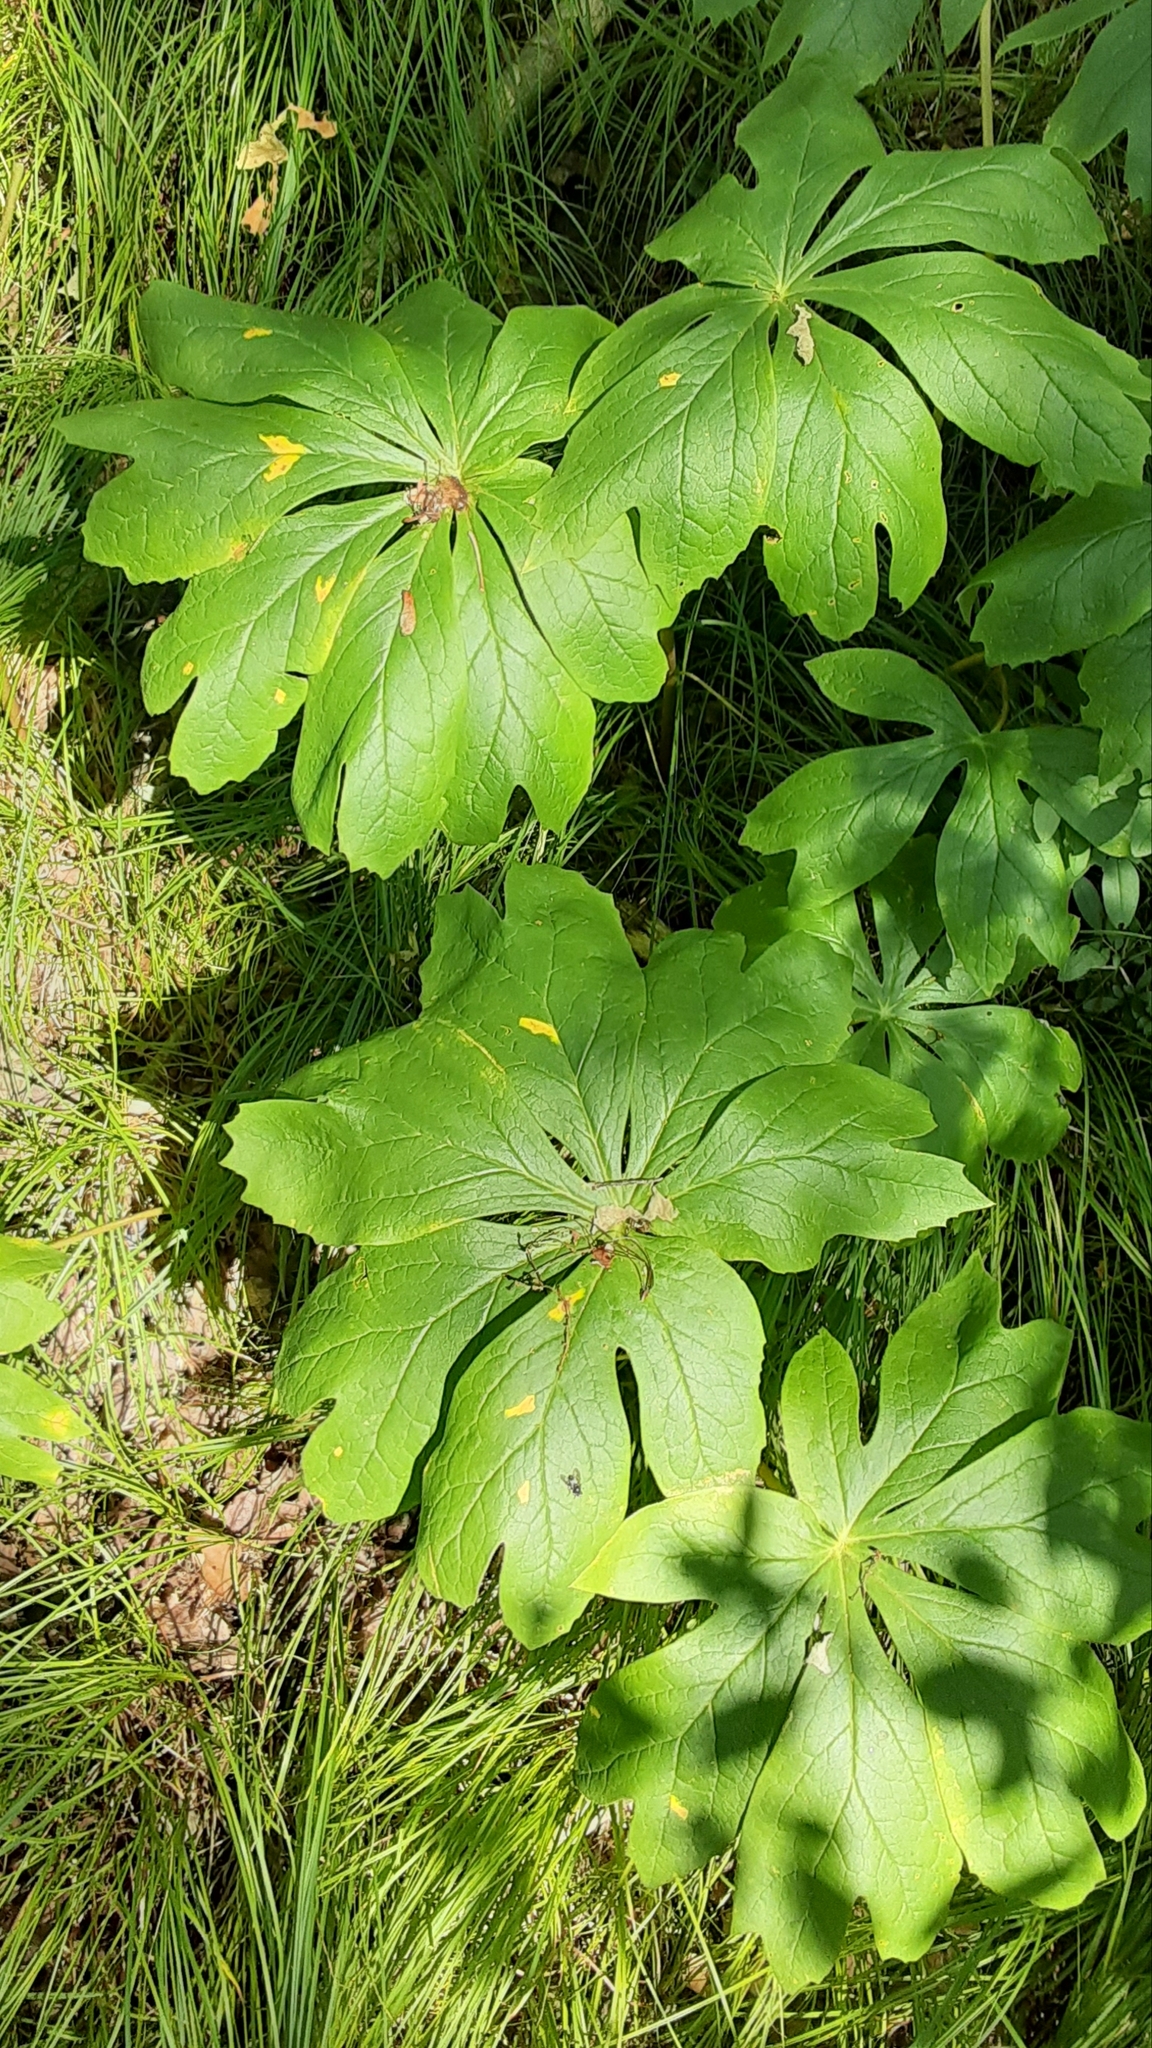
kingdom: Plantae
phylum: Tracheophyta
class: Magnoliopsida
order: Ranunculales
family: Berberidaceae
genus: Podophyllum
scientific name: Podophyllum peltatum
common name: Wild mandrake
